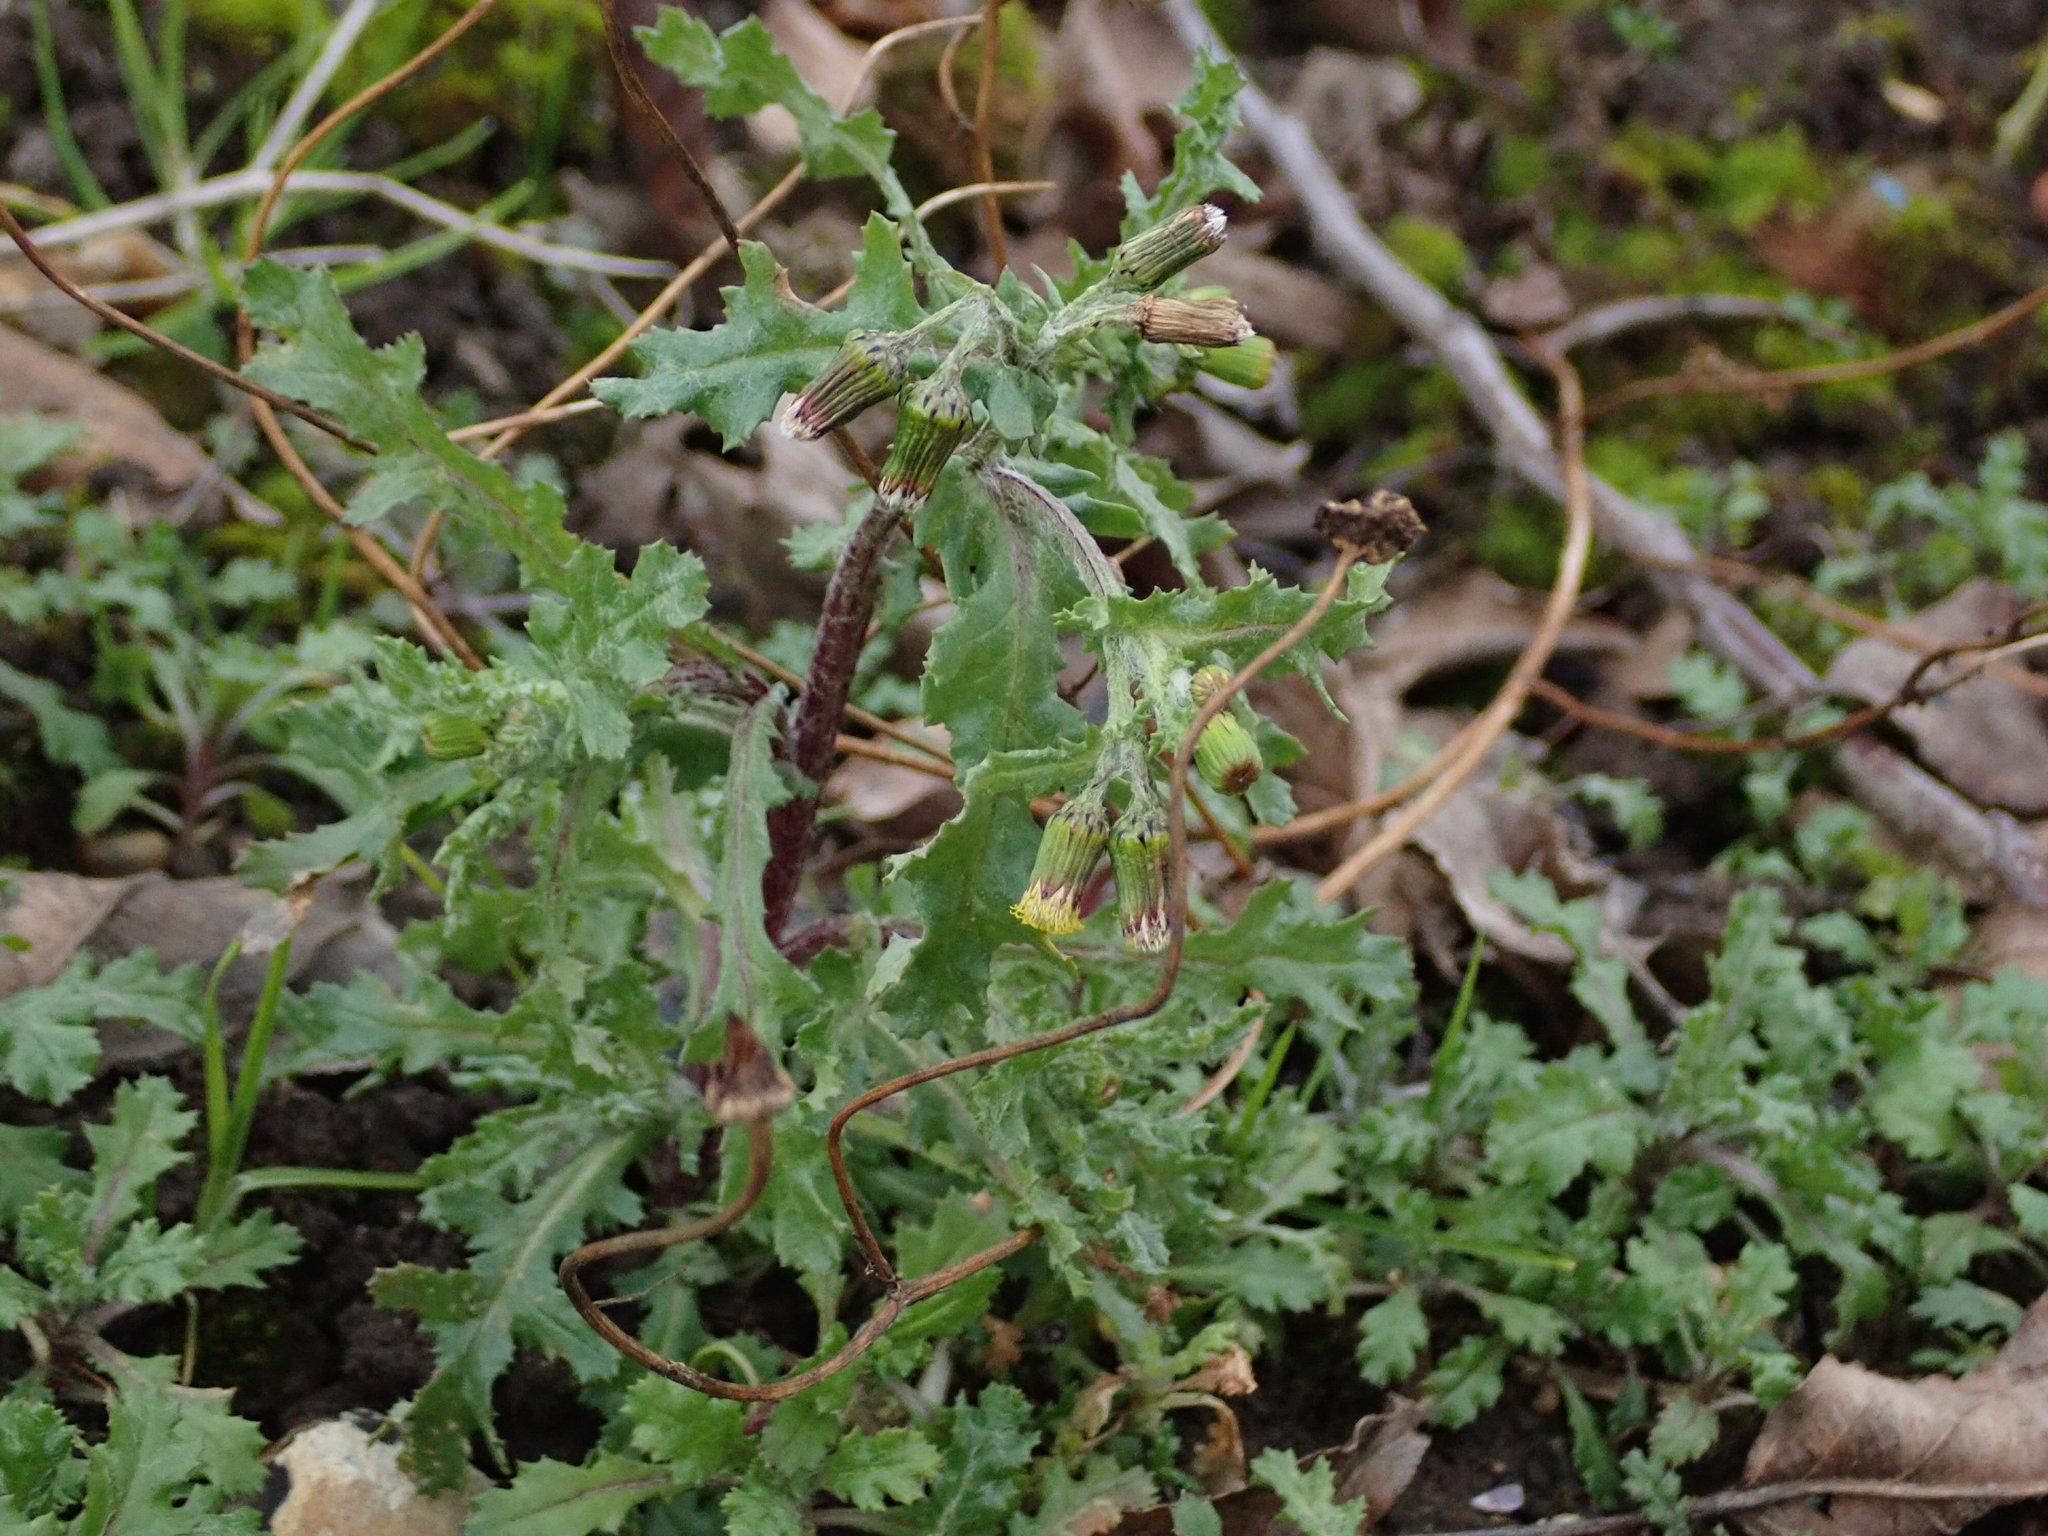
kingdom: Plantae
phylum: Tracheophyta
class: Magnoliopsida
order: Asterales
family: Asteraceae
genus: Senecio
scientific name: Senecio vulgaris
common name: Old-man-in-the-spring
